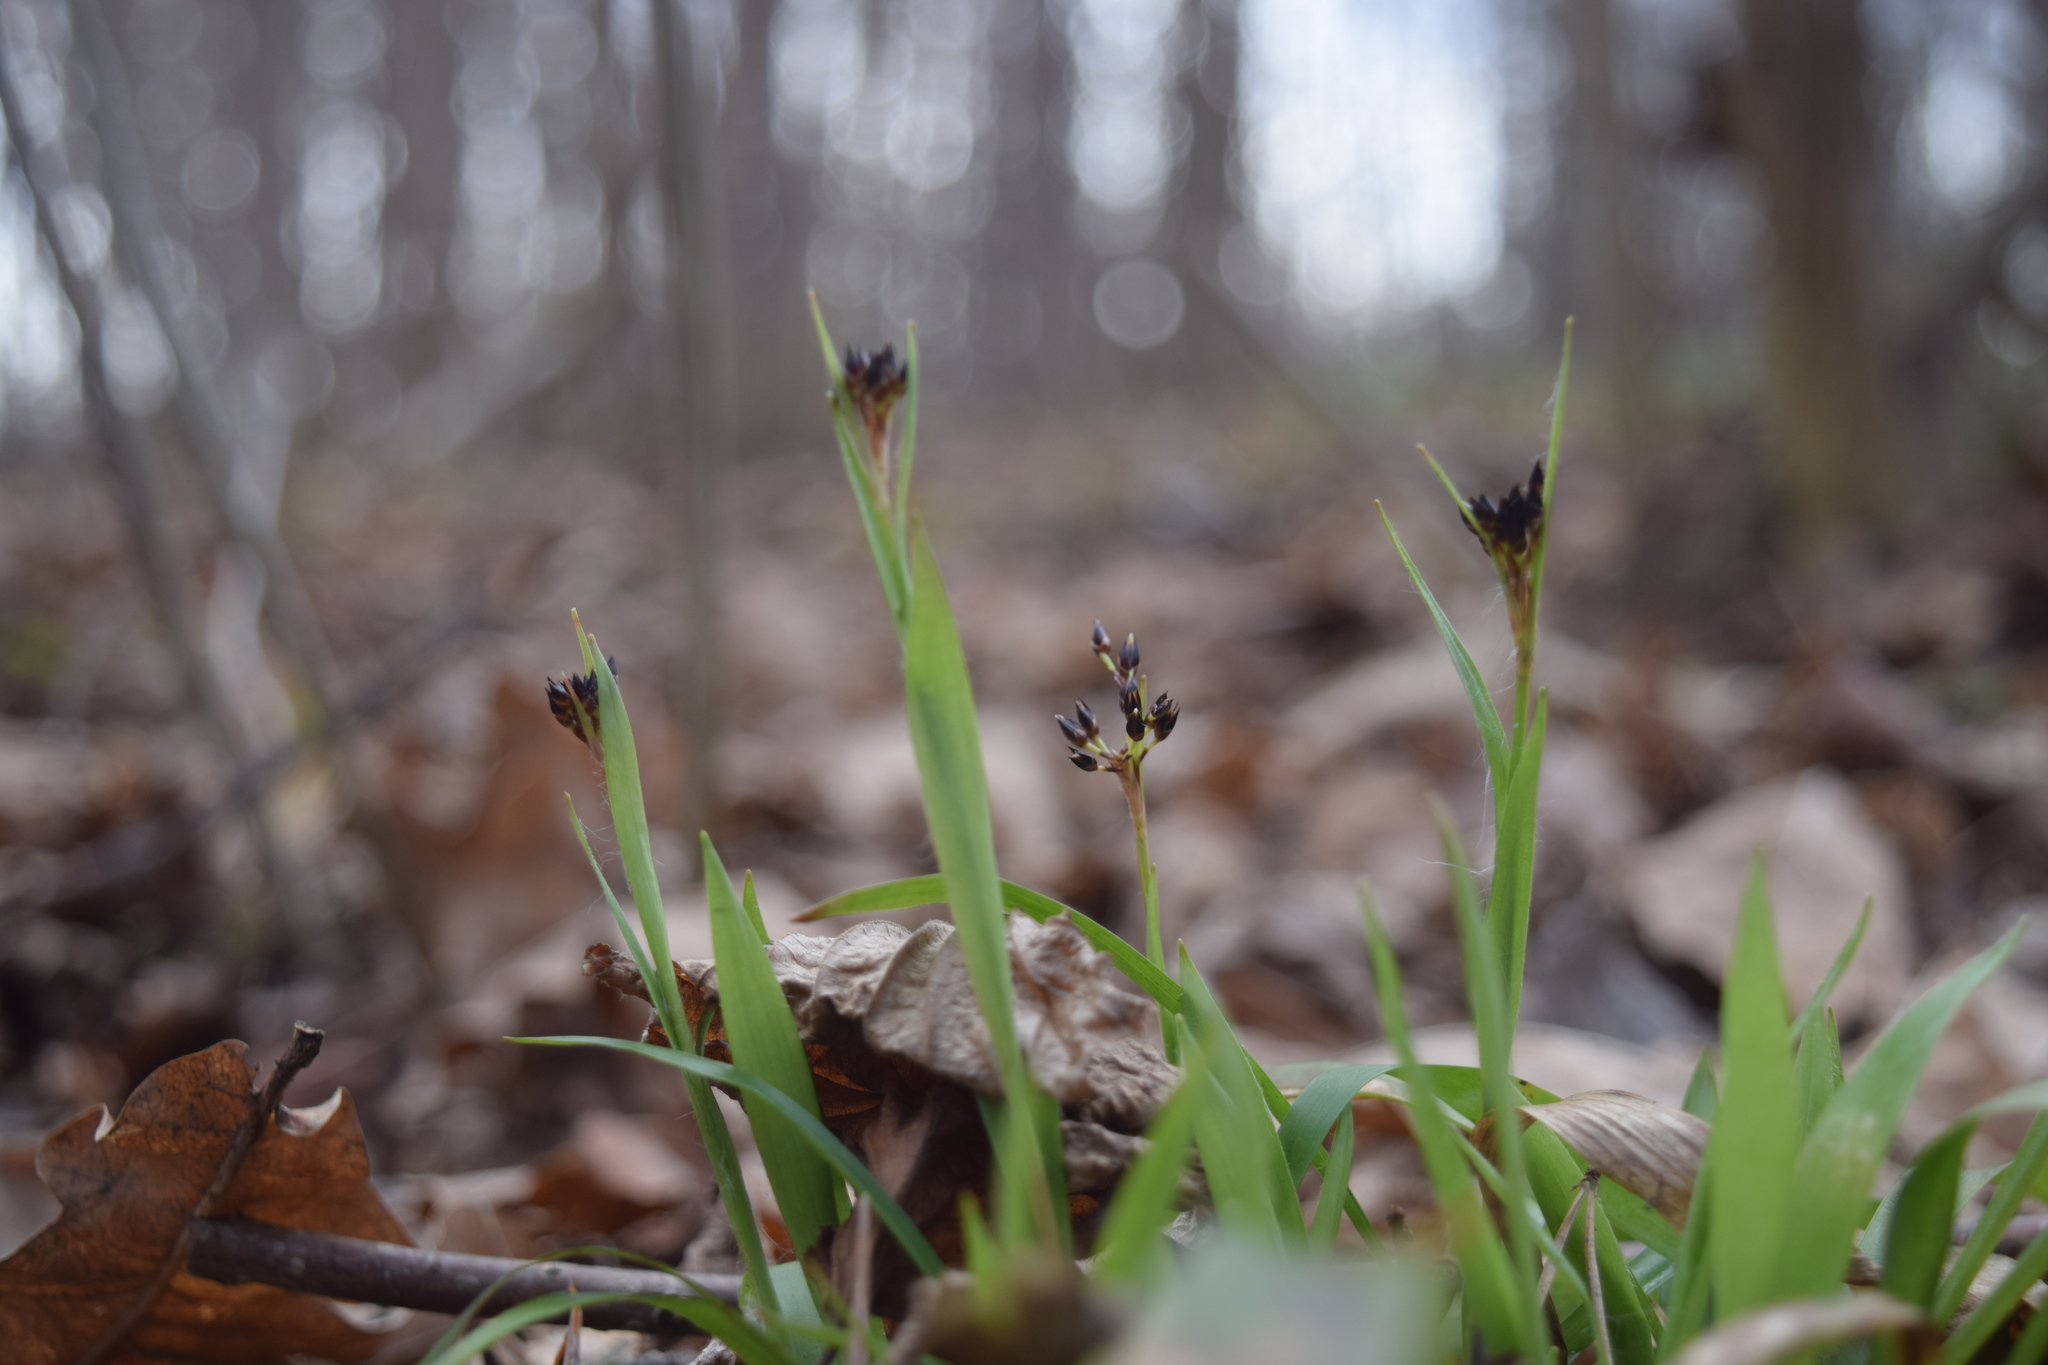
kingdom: Plantae
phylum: Tracheophyta
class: Liliopsida
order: Poales
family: Juncaceae
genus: Luzula
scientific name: Luzula pilosa
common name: Hairy wood-rush
